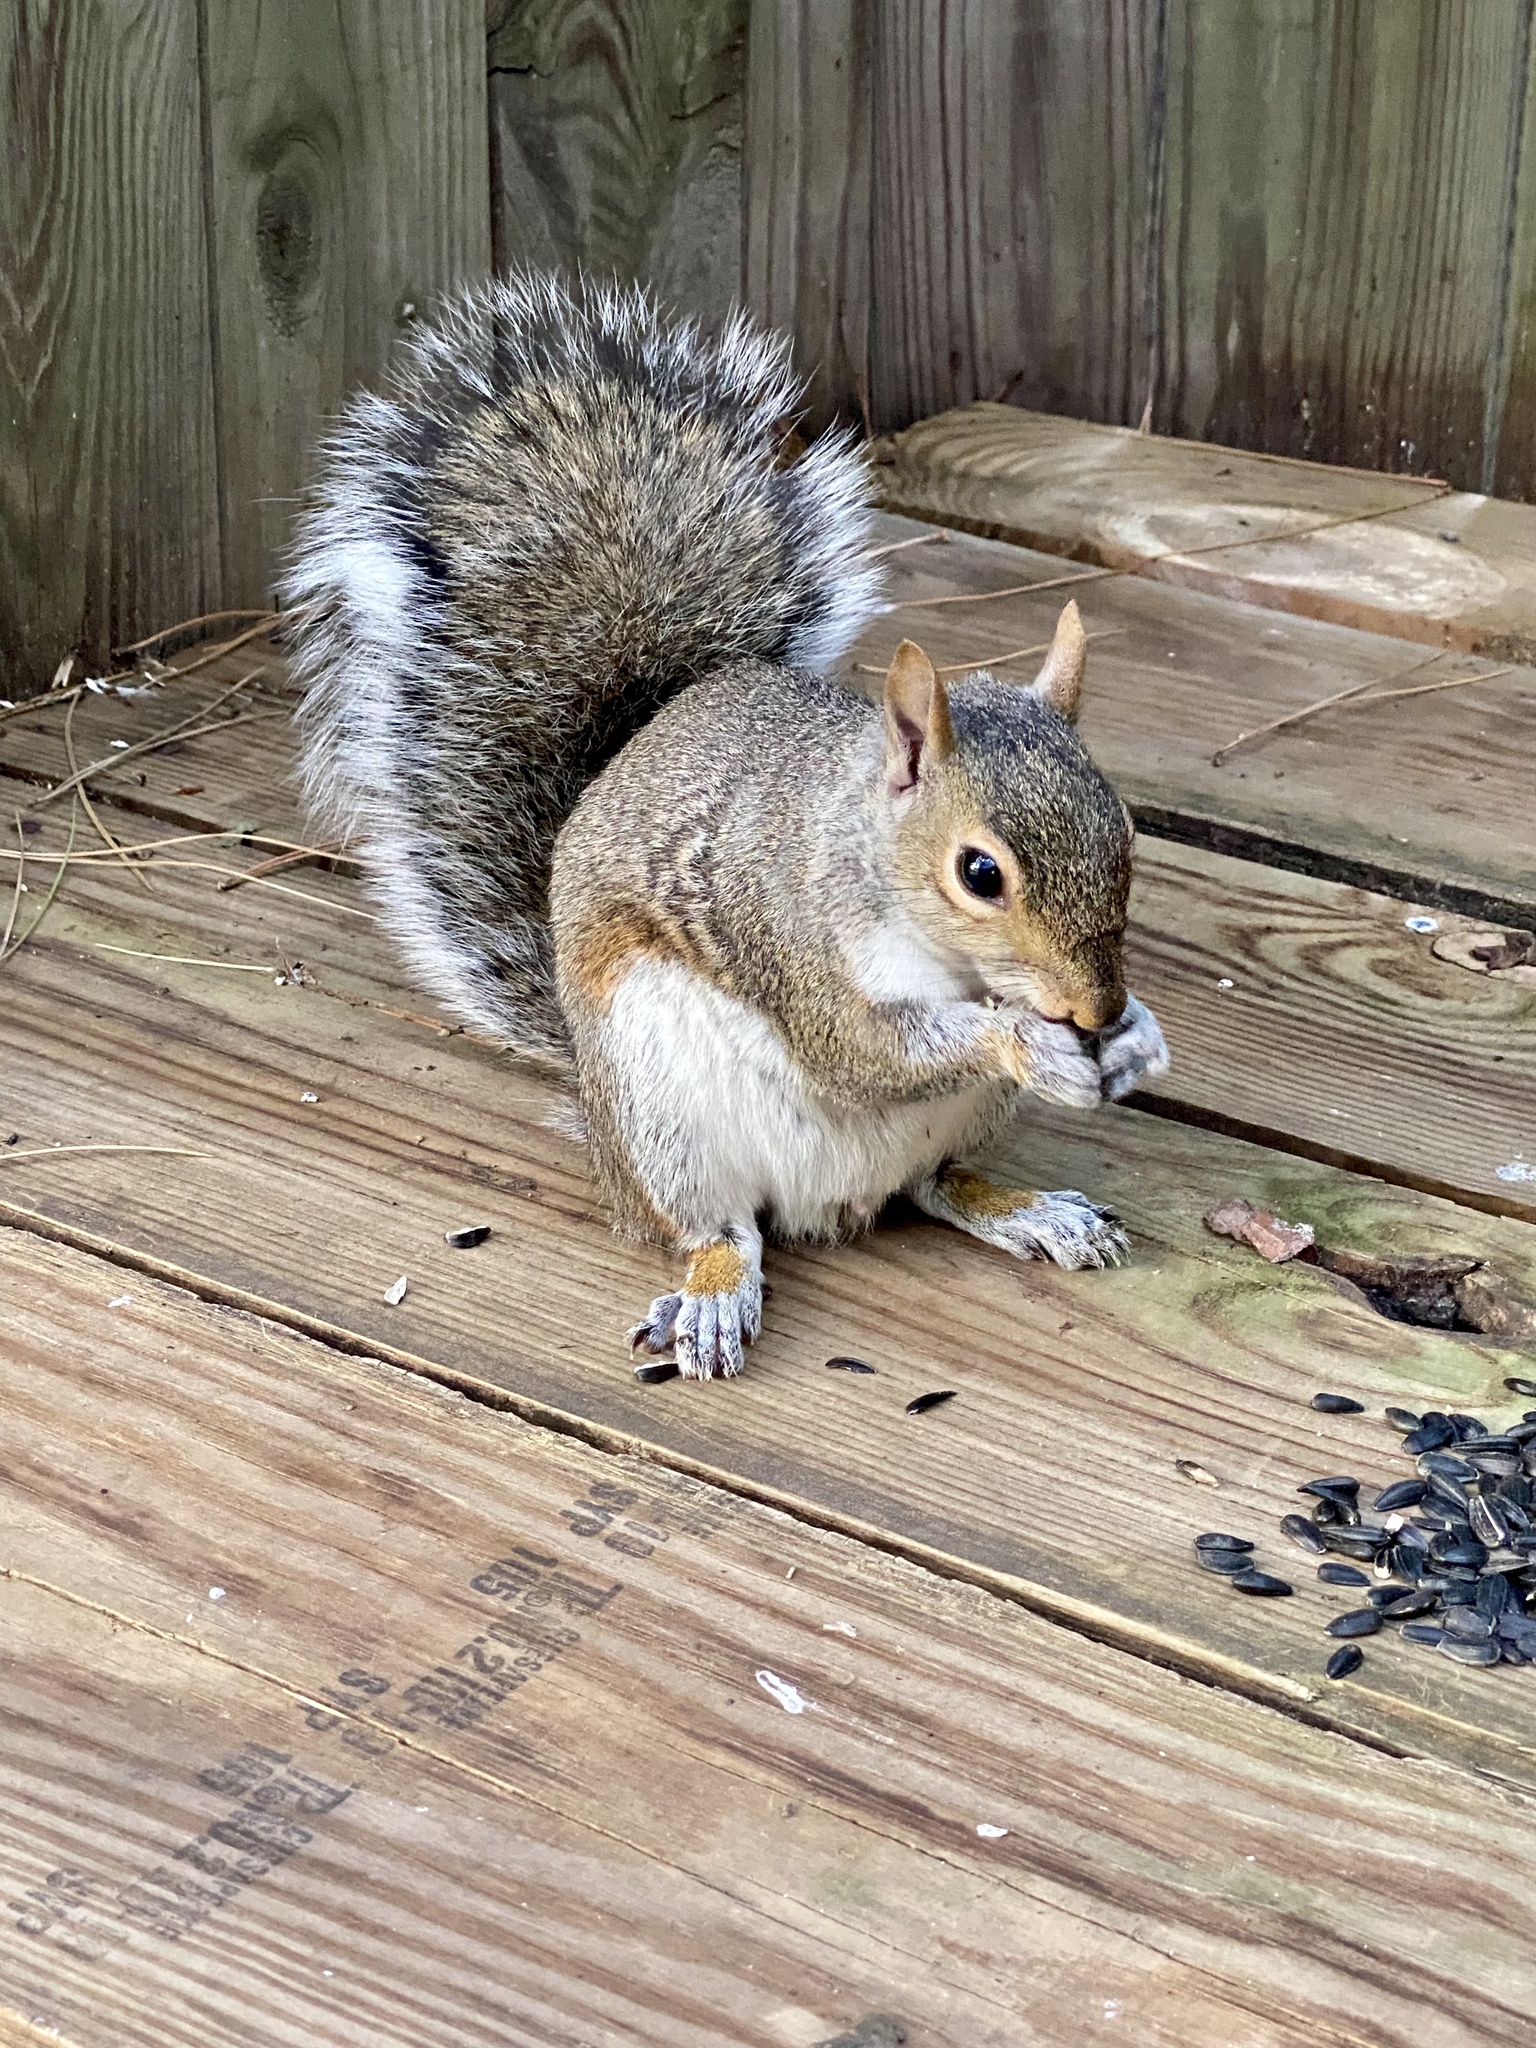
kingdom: Animalia
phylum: Chordata
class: Mammalia
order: Rodentia
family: Sciuridae
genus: Sciurus
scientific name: Sciurus carolinensis
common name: Eastern gray squirrel
